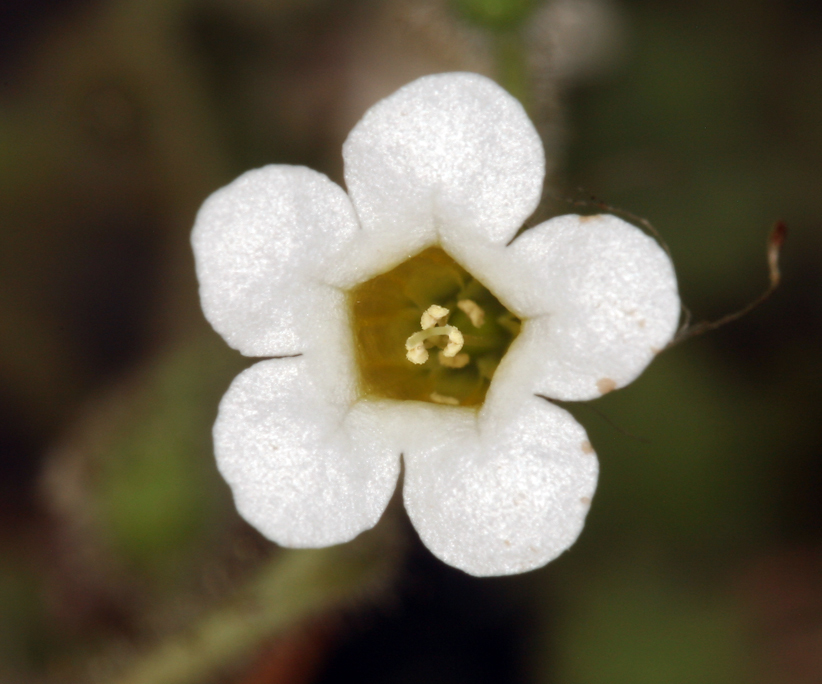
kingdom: Plantae
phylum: Tracheophyta
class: Magnoliopsida
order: Boraginales
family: Hydrophyllaceae
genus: Phacelia
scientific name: Phacelia perityloides
